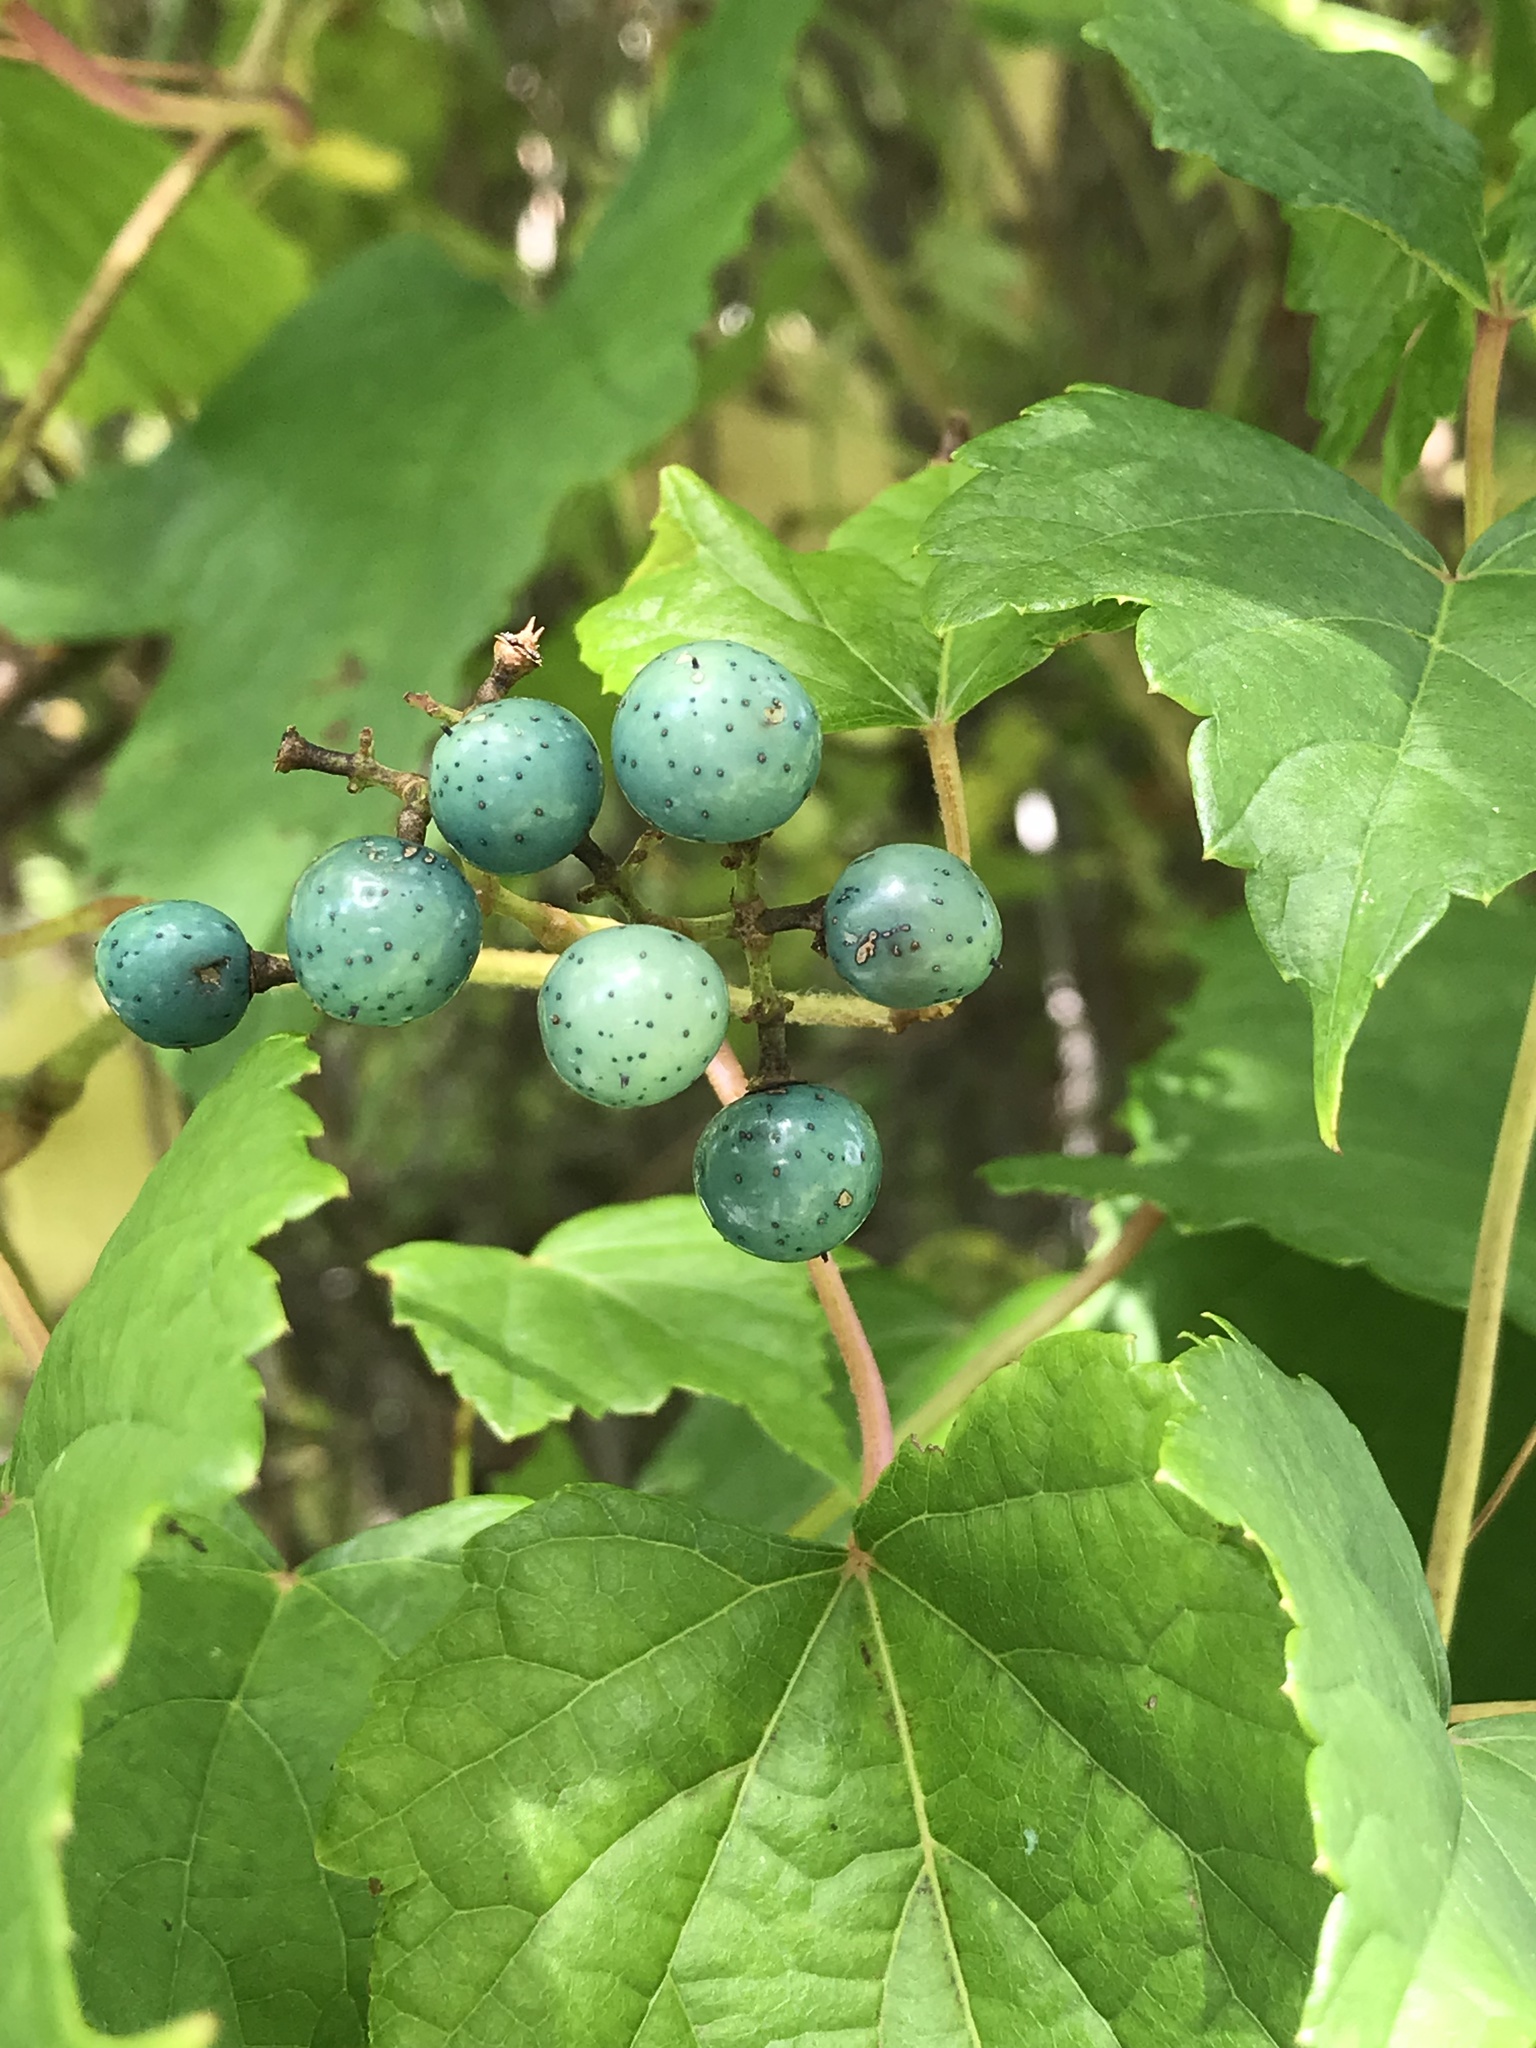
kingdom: Plantae
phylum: Tracheophyta
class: Magnoliopsida
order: Vitales
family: Vitaceae
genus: Ampelopsis
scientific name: Ampelopsis glandulosa
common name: Amur peppervine
